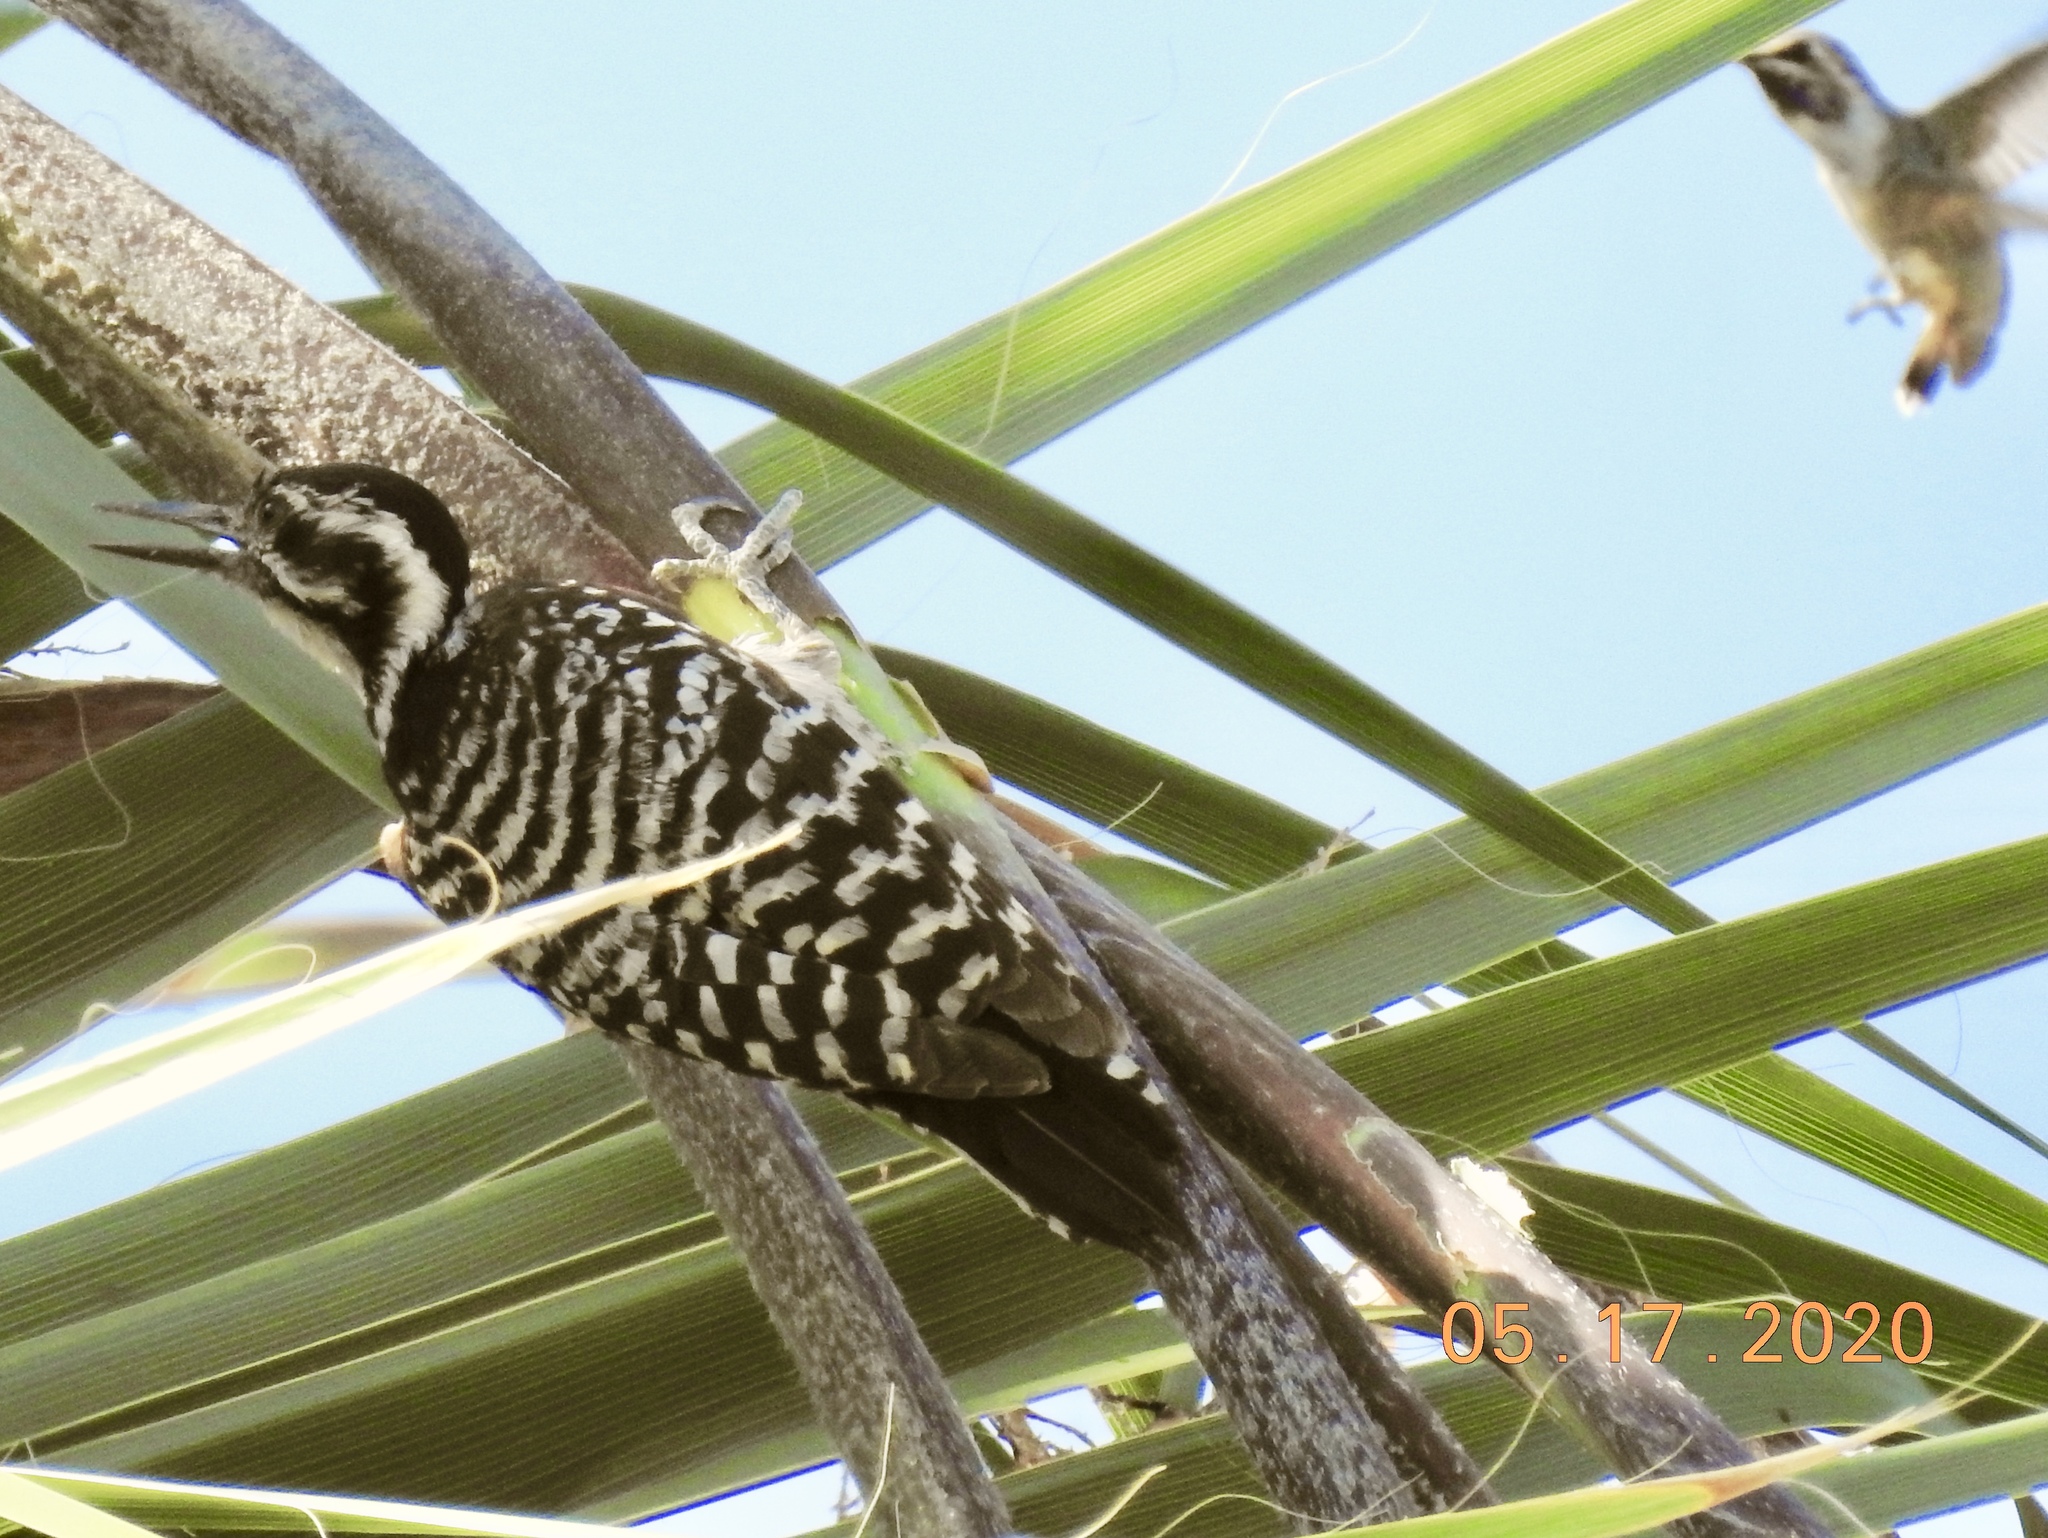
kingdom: Animalia
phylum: Chordata
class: Aves
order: Piciformes
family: Picidae
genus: Dryobates
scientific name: Dryobates scalaris
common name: Ladder-backed woodpecker
